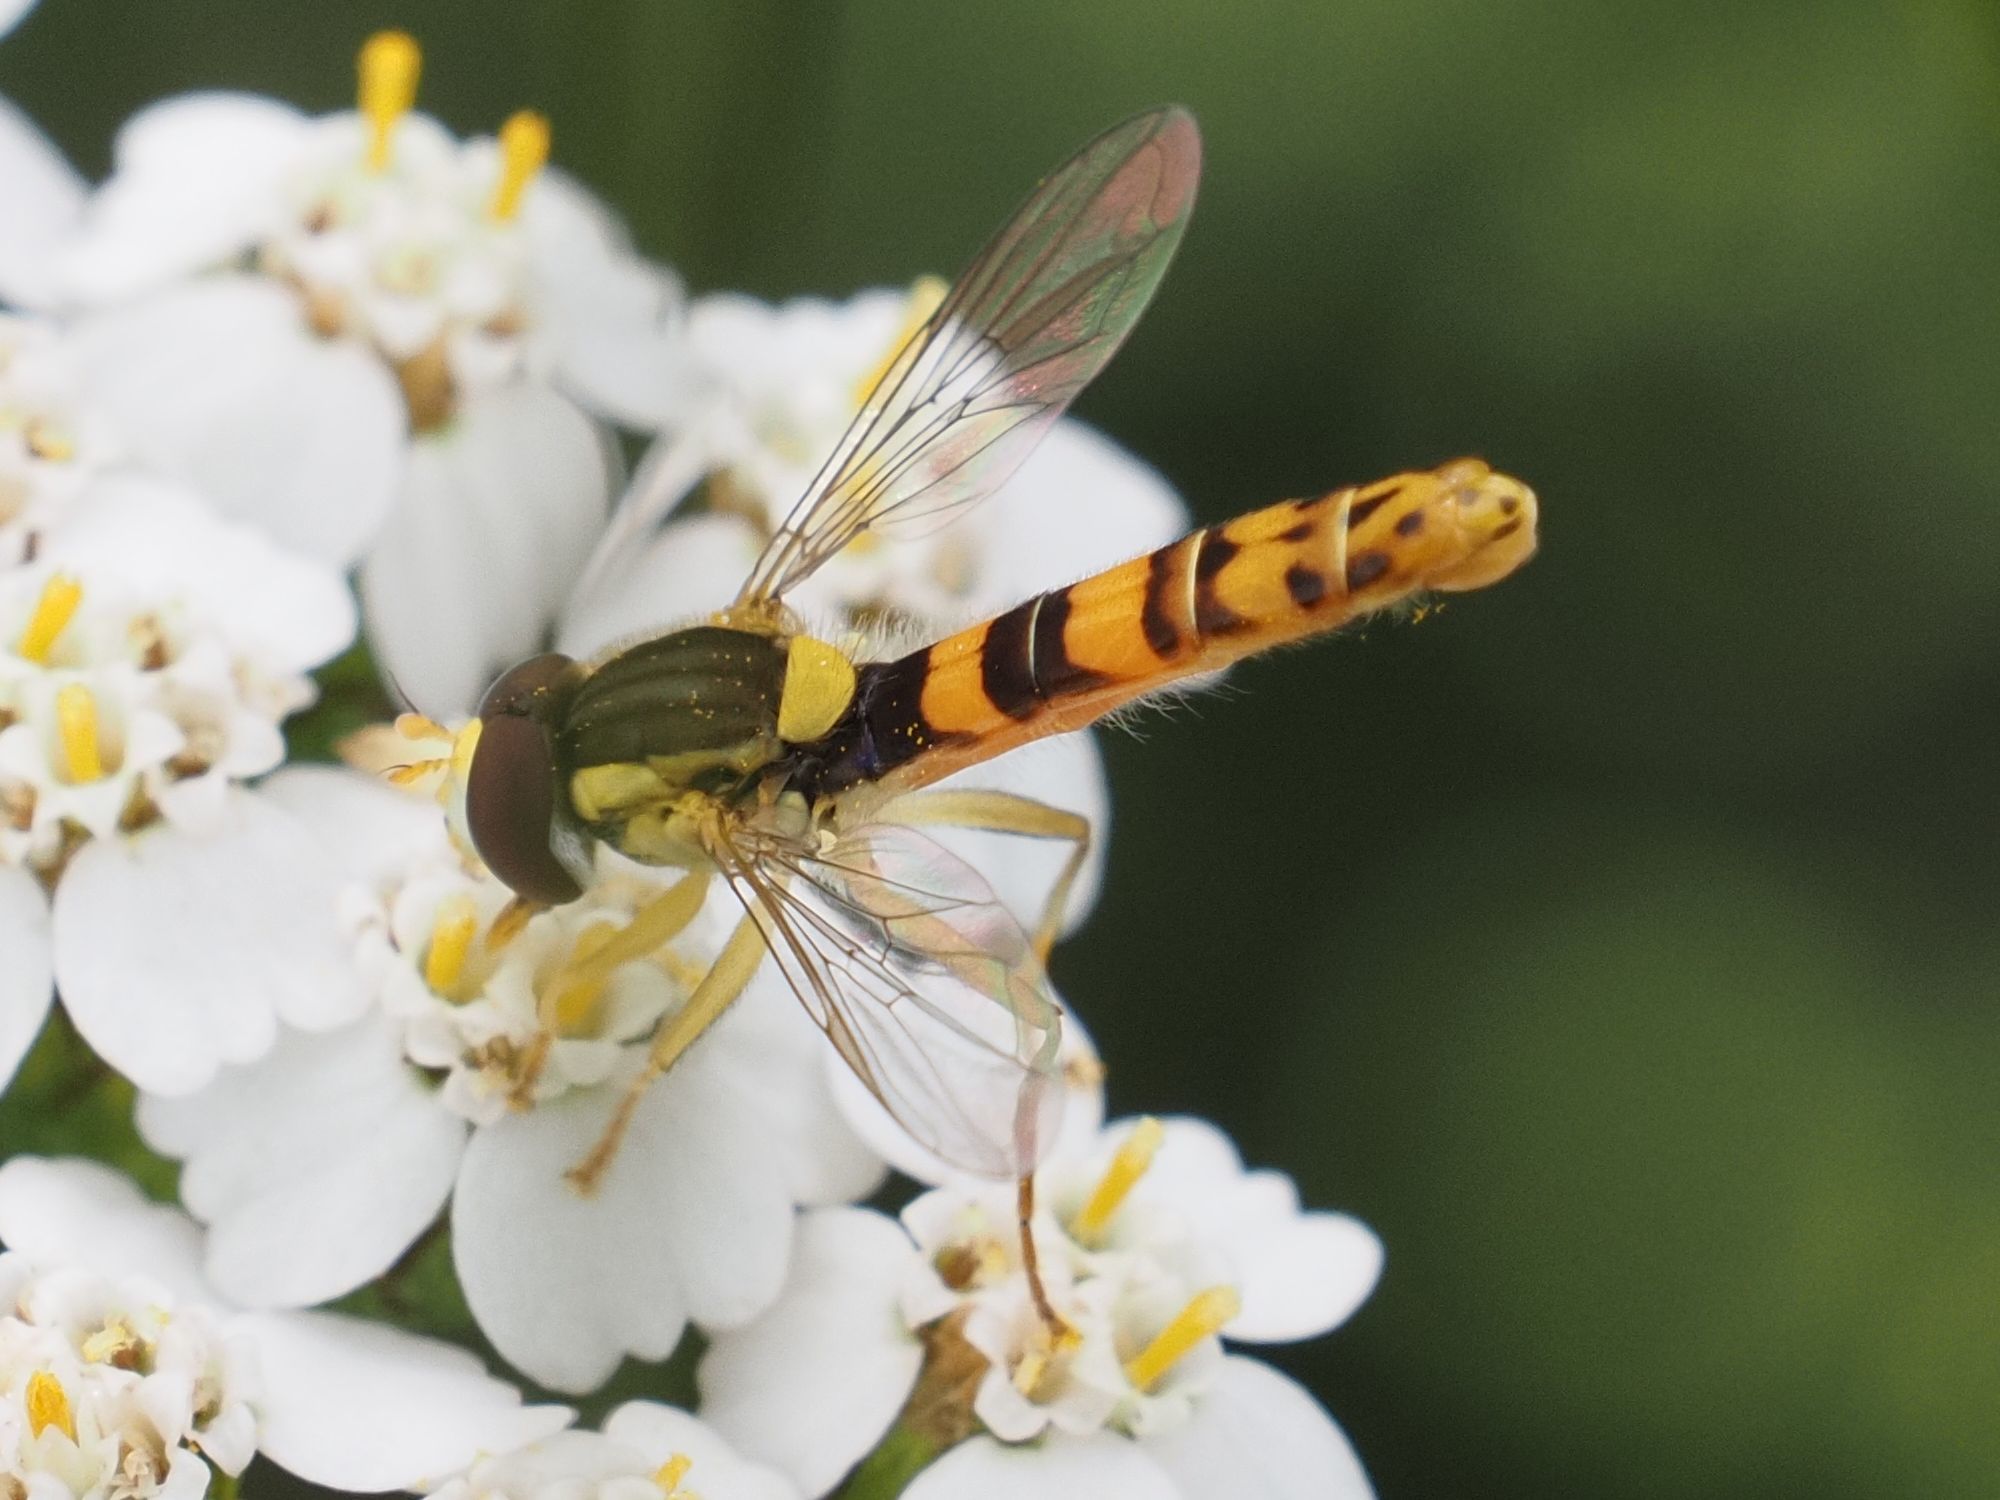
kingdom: Animalia
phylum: Arthropoda
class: Insecta
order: Diptera
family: Syrphidae
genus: Sphaerophoria
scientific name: Sphaerophoria scripta
